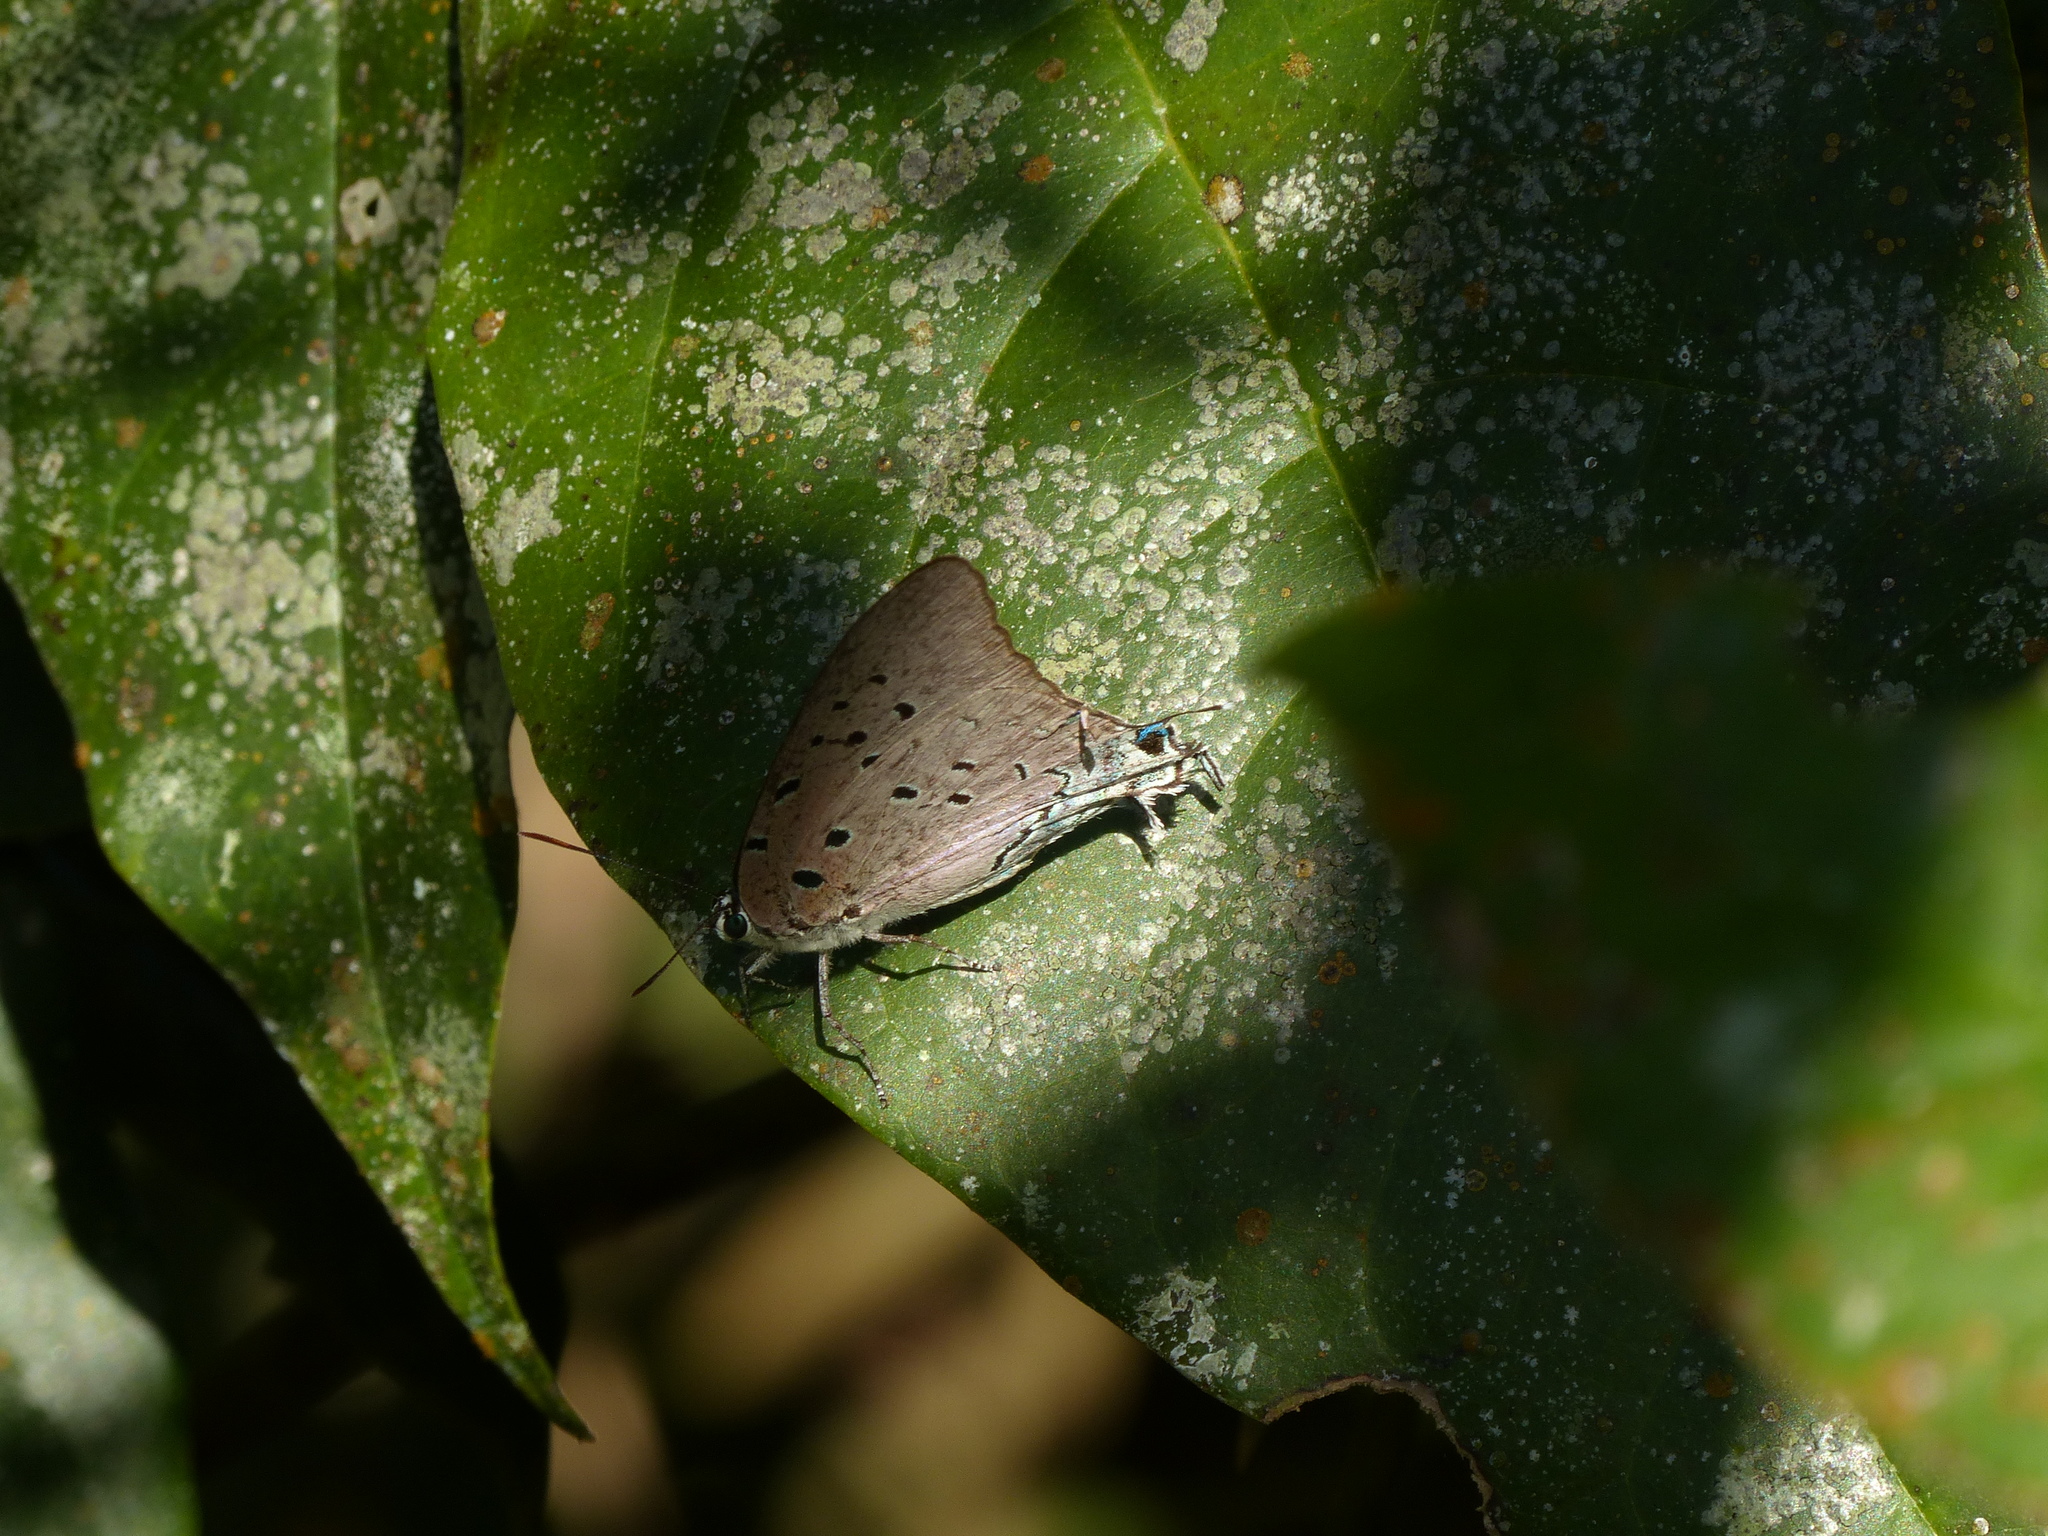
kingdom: Animalia
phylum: Arthropoda
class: Insecta
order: Lepidoptera
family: Lycaenidae
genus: Pseudolycaena
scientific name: Pseudolycaena marsyas
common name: Marsyas hairstreak
